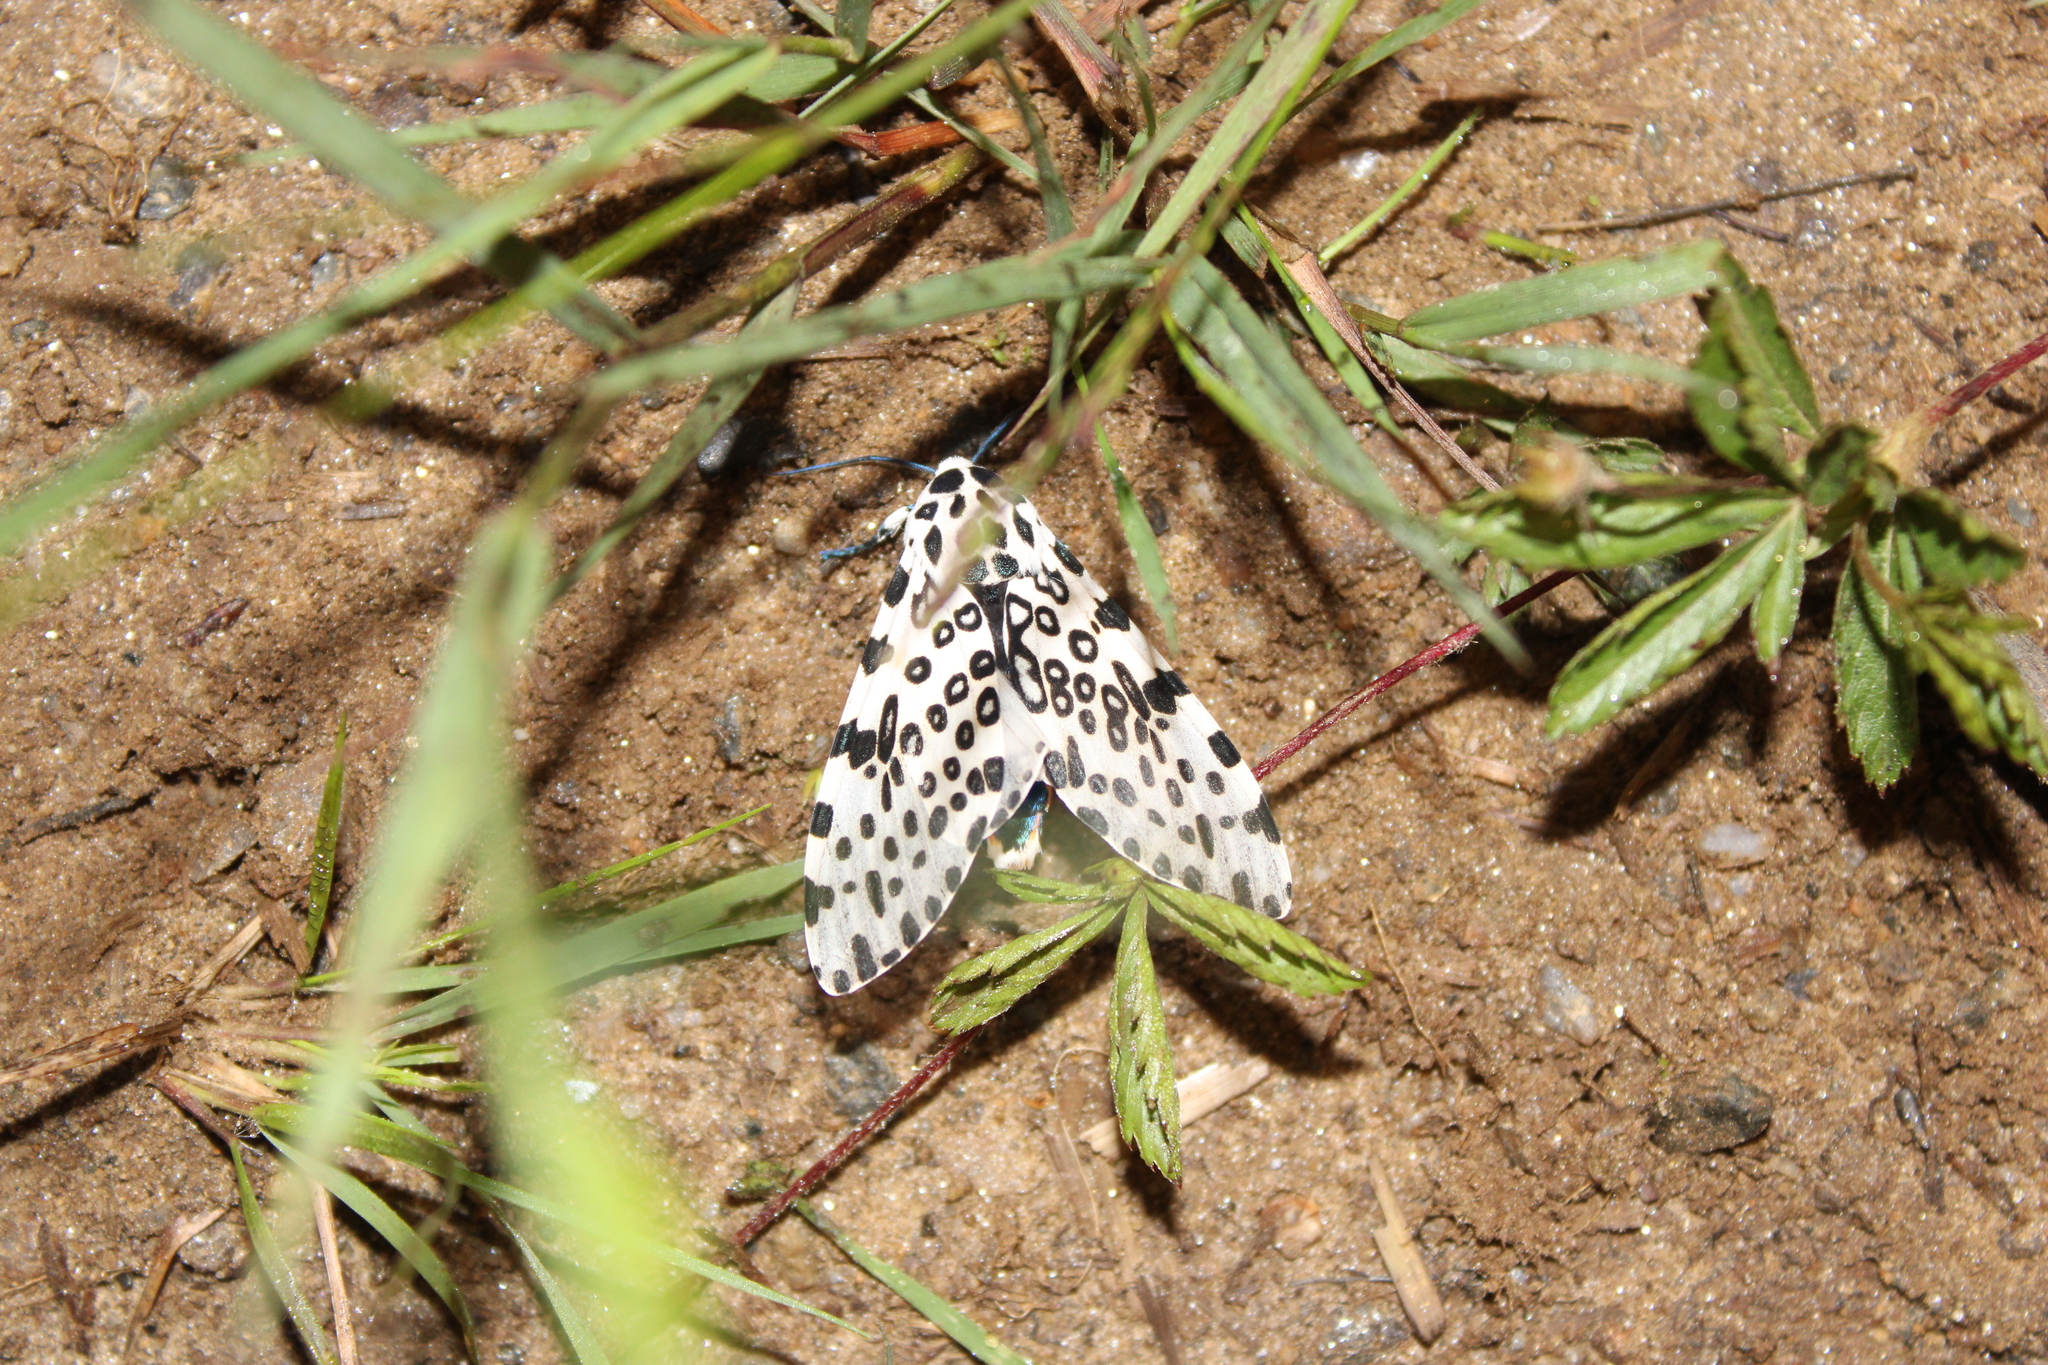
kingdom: Animalia
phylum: Arthropoda
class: Insecta
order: Lepidoptera
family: Erebidae
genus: Hypercompe
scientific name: Hypercompe scribonia
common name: Giant leopard moth
